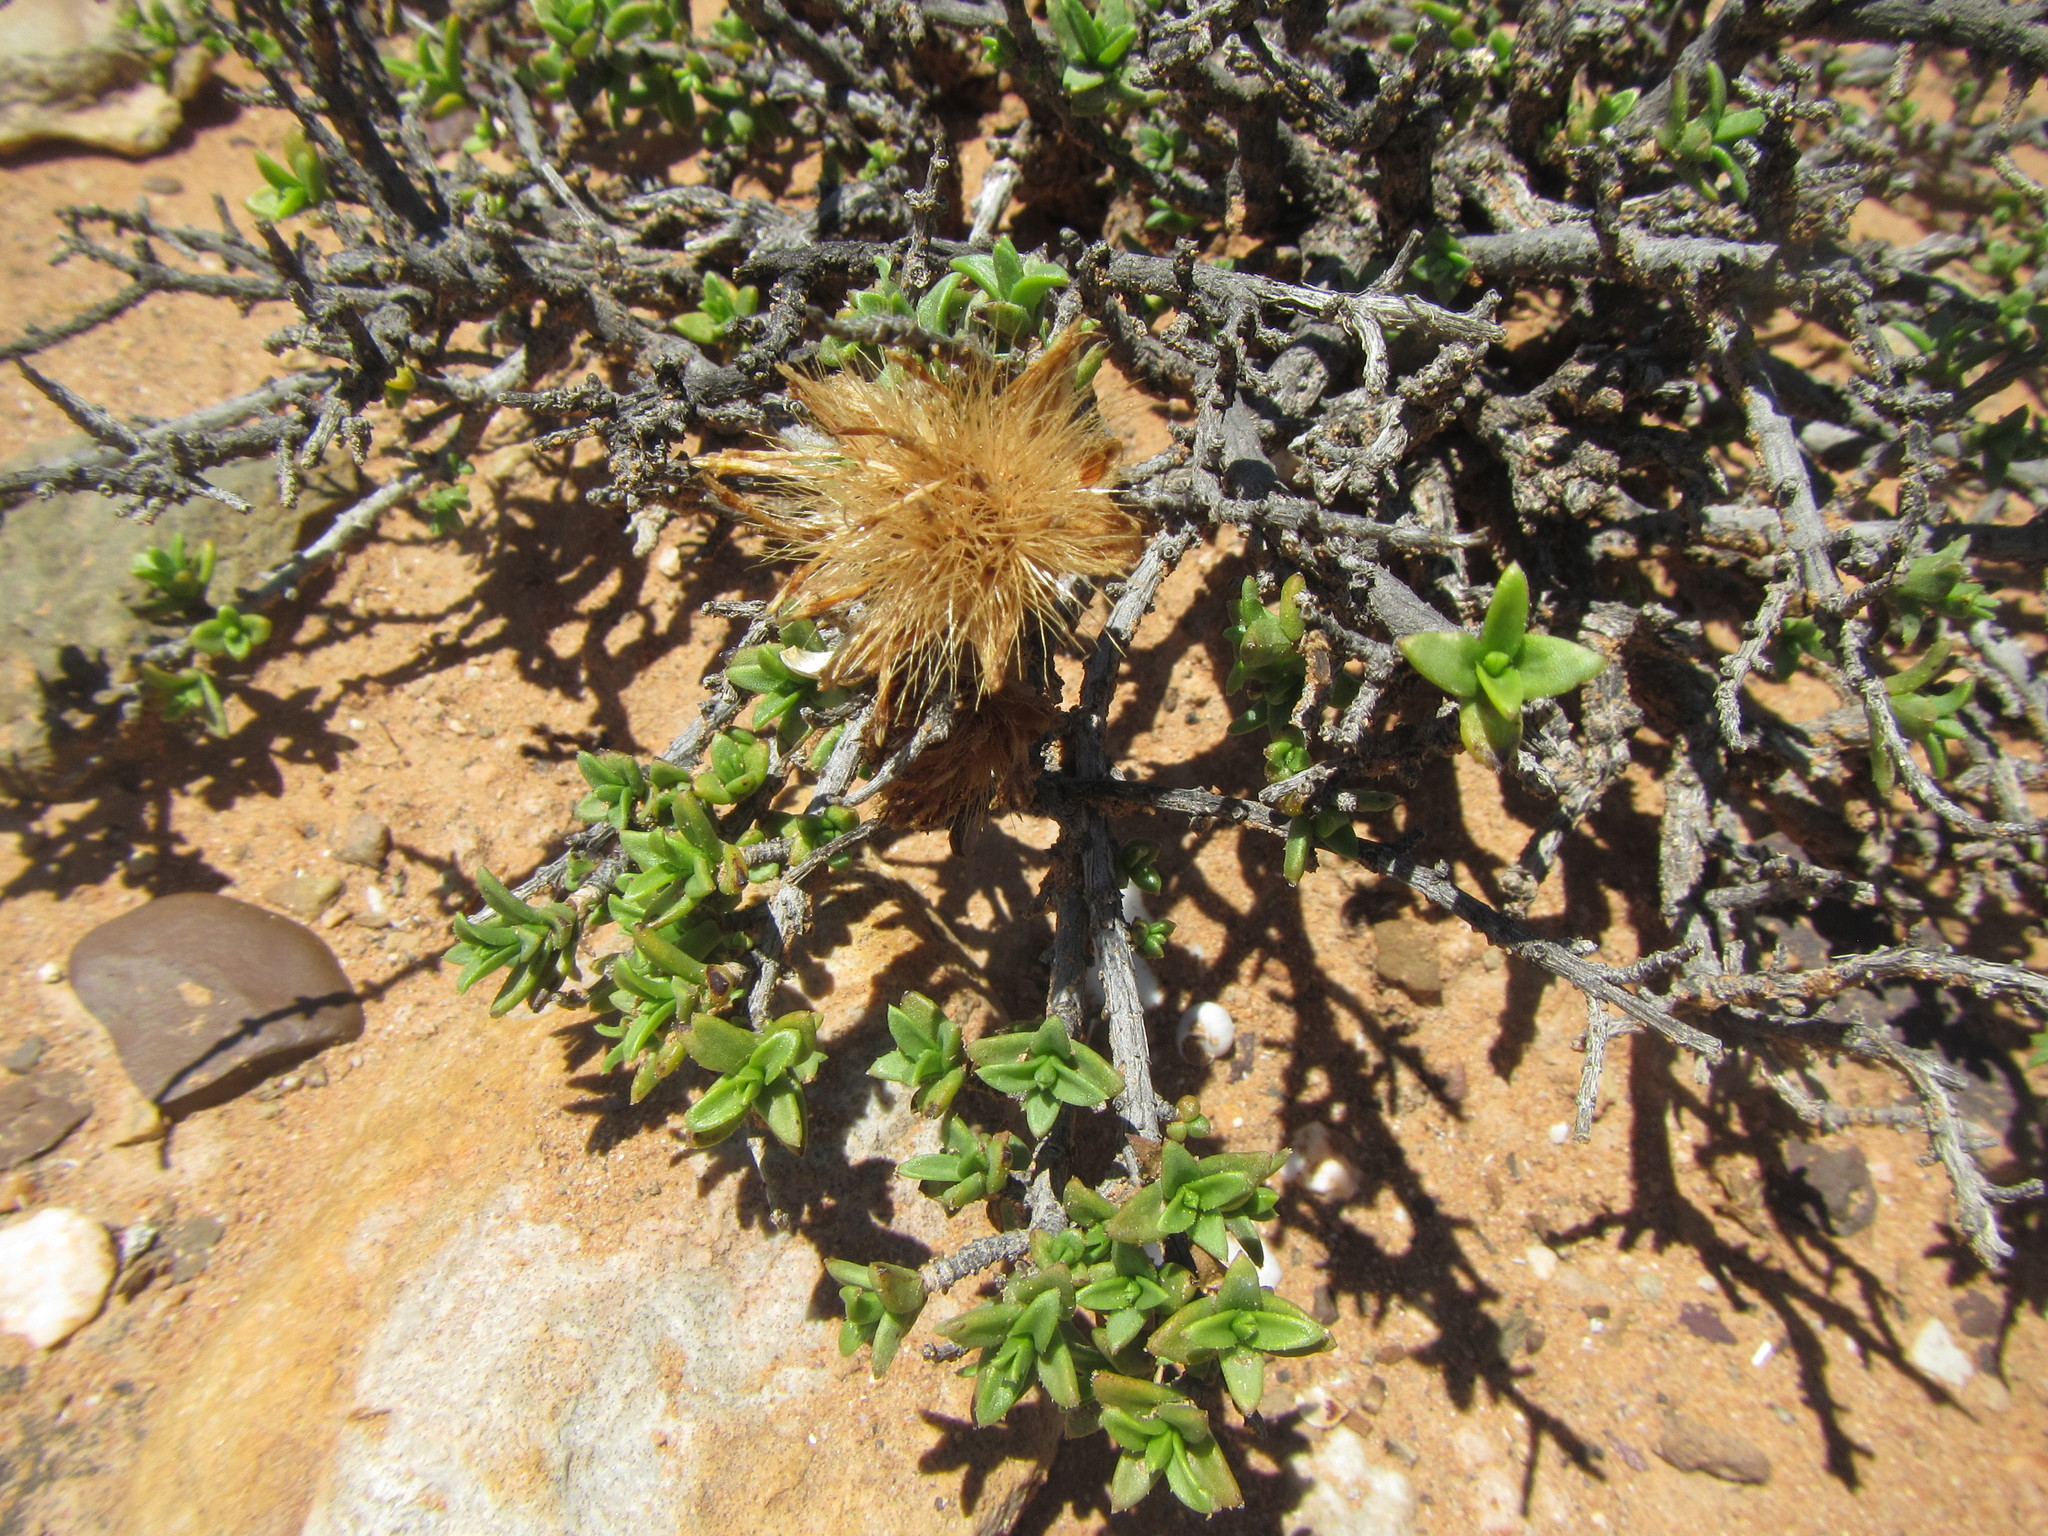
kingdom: Plantae
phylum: Tracheophyta
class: Magnoliopsida
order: Asterales
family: Asteraceae
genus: Pteronia
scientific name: Pteronia viscosa
